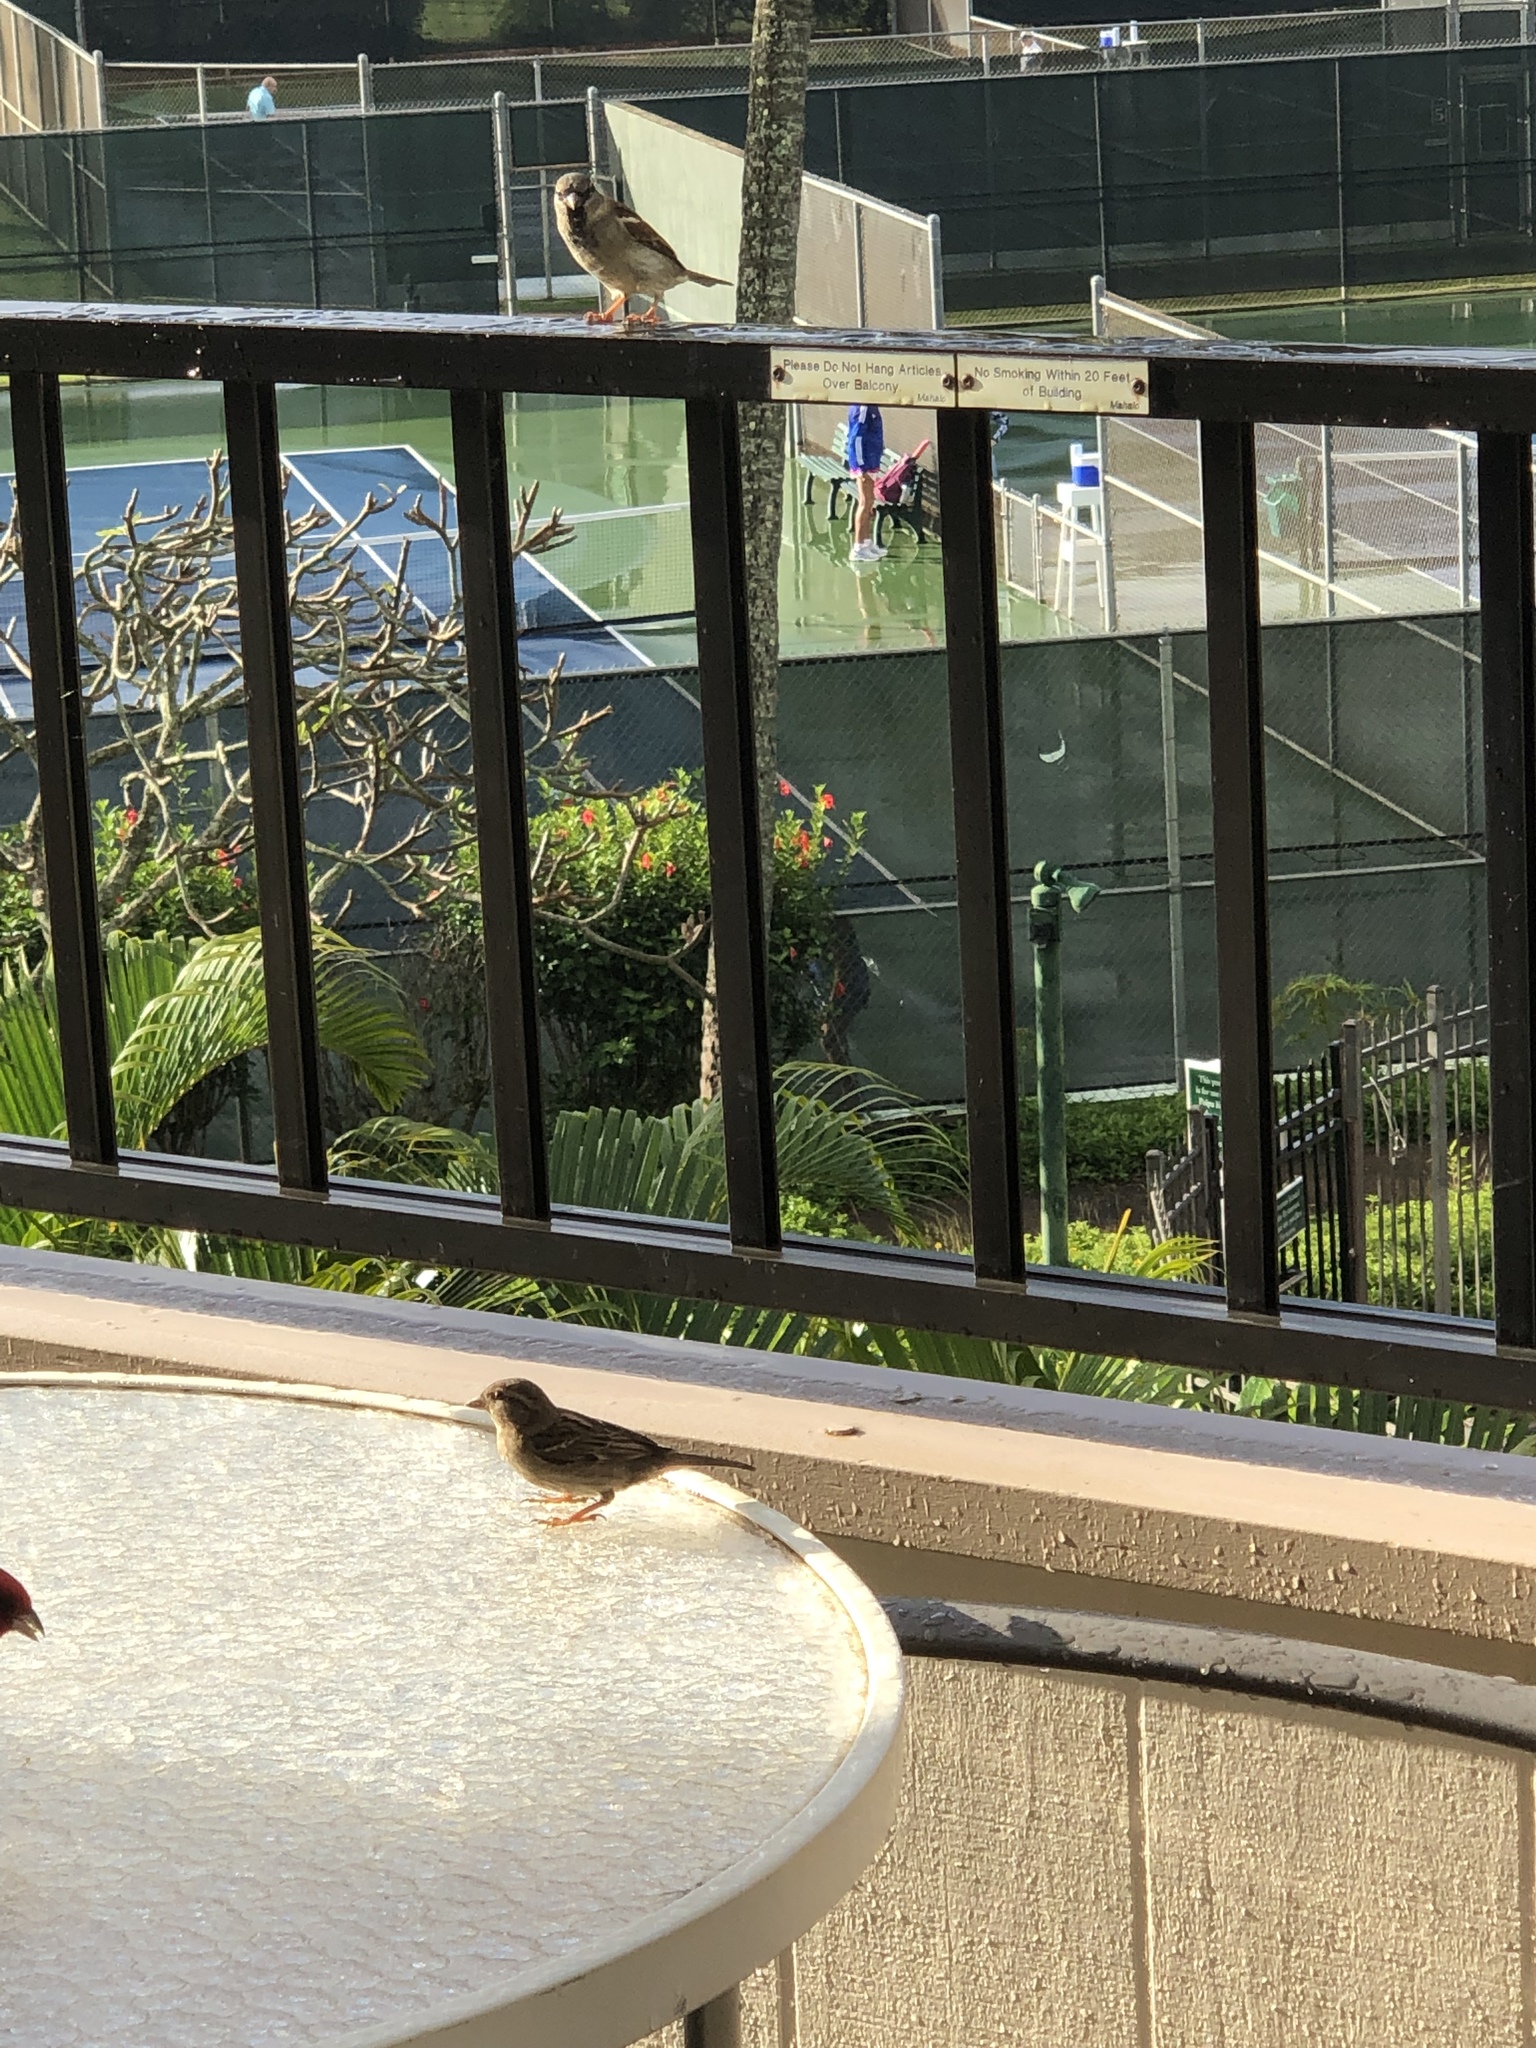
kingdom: Animalia
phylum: Chordata
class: Aves
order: Passeriformes
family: Passeridae
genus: Passer
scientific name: Passer domesticus
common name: House sparrow
